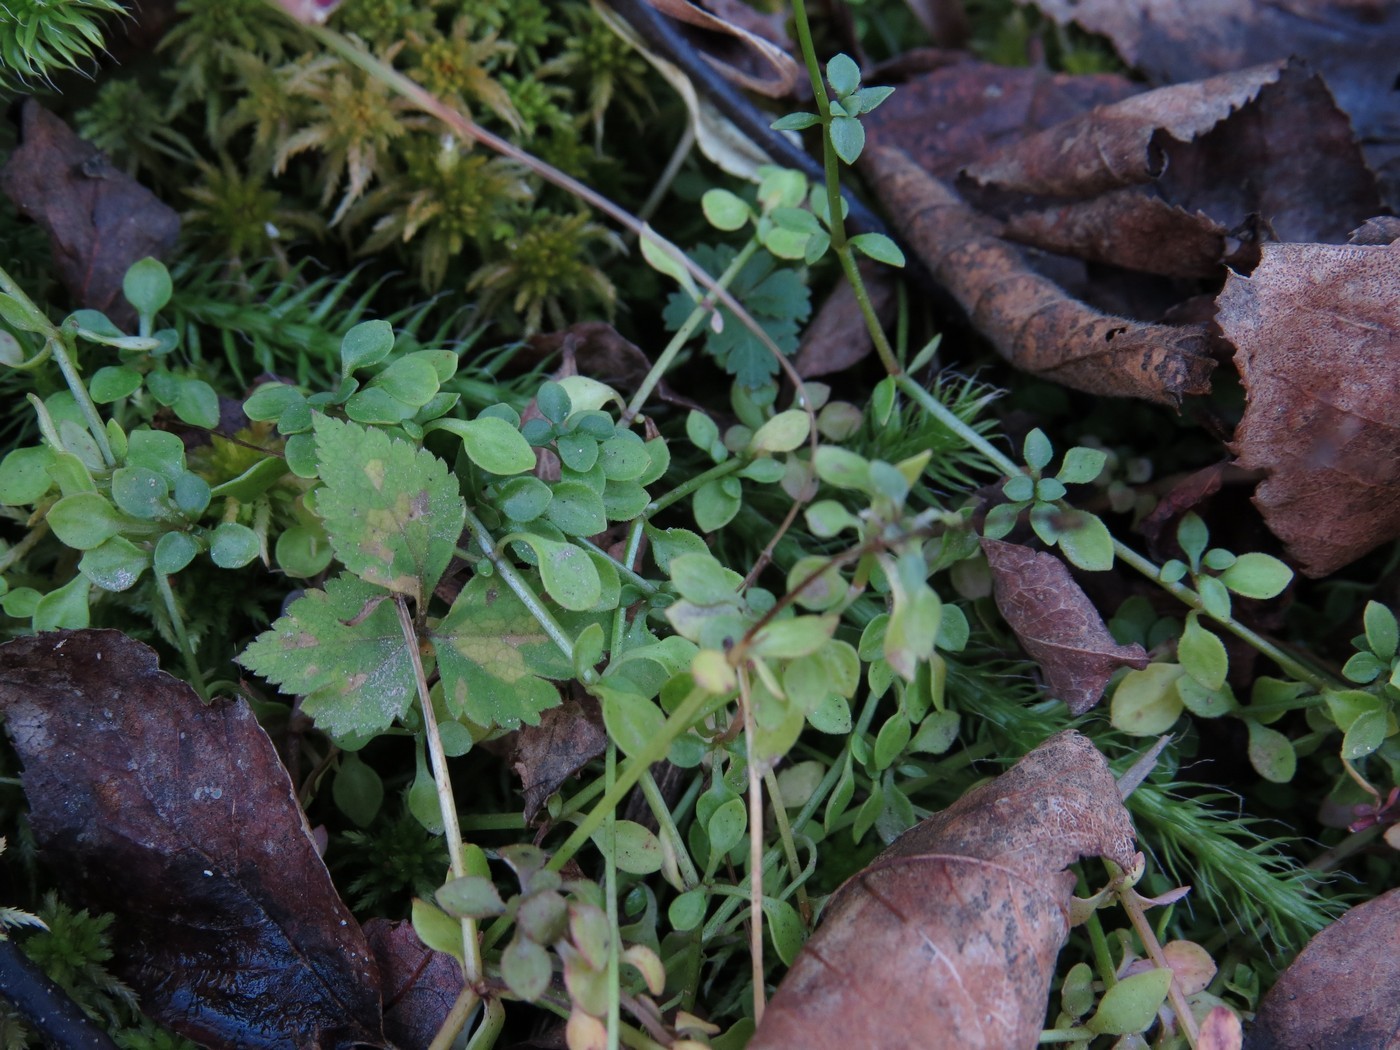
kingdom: Plantae
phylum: Tracheophyta
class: Magnoliopsida
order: Gentianales
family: Rubiaceae
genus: Houstonia
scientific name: Houstonia serpyllifolia
